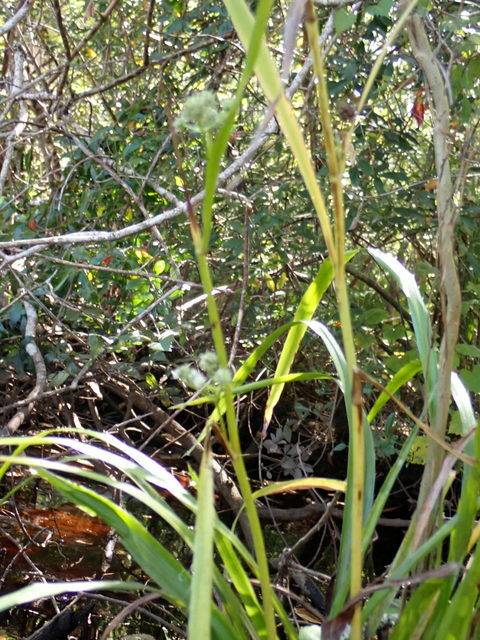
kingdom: Plantae
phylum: Tracheophyta
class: Magnoliopsida
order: Apiales
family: Apiaceae
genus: Eryngium
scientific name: Eryngium yuccifolium
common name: Button eryngo
